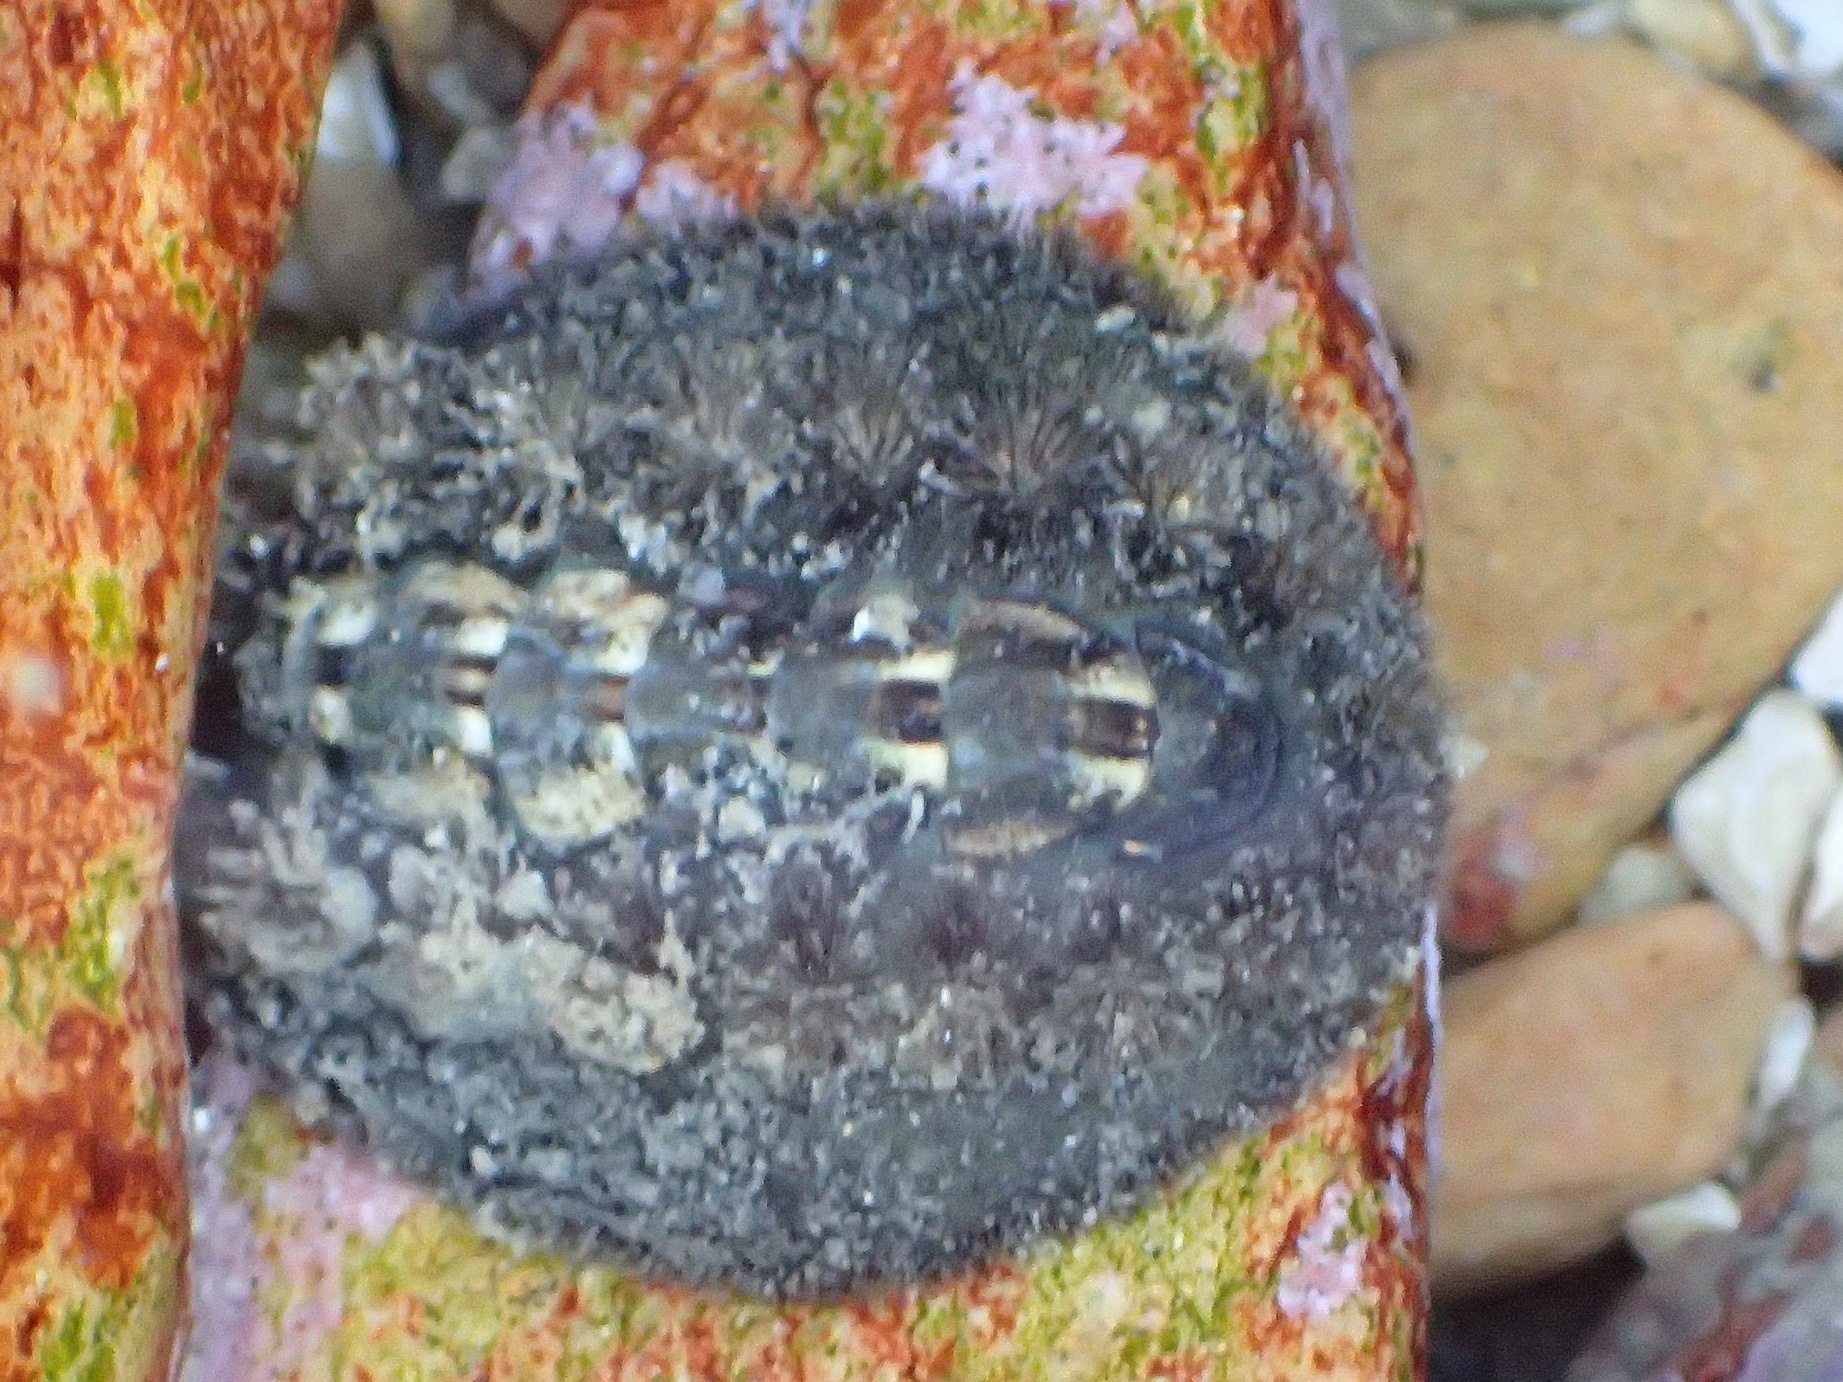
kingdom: Animalia
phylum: Mollusca
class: Polyplacophora
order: Chitonida
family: Acanthochitonidae
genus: Acanthochitona
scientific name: Acanthochitona garnoti
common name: Spiny chiton
